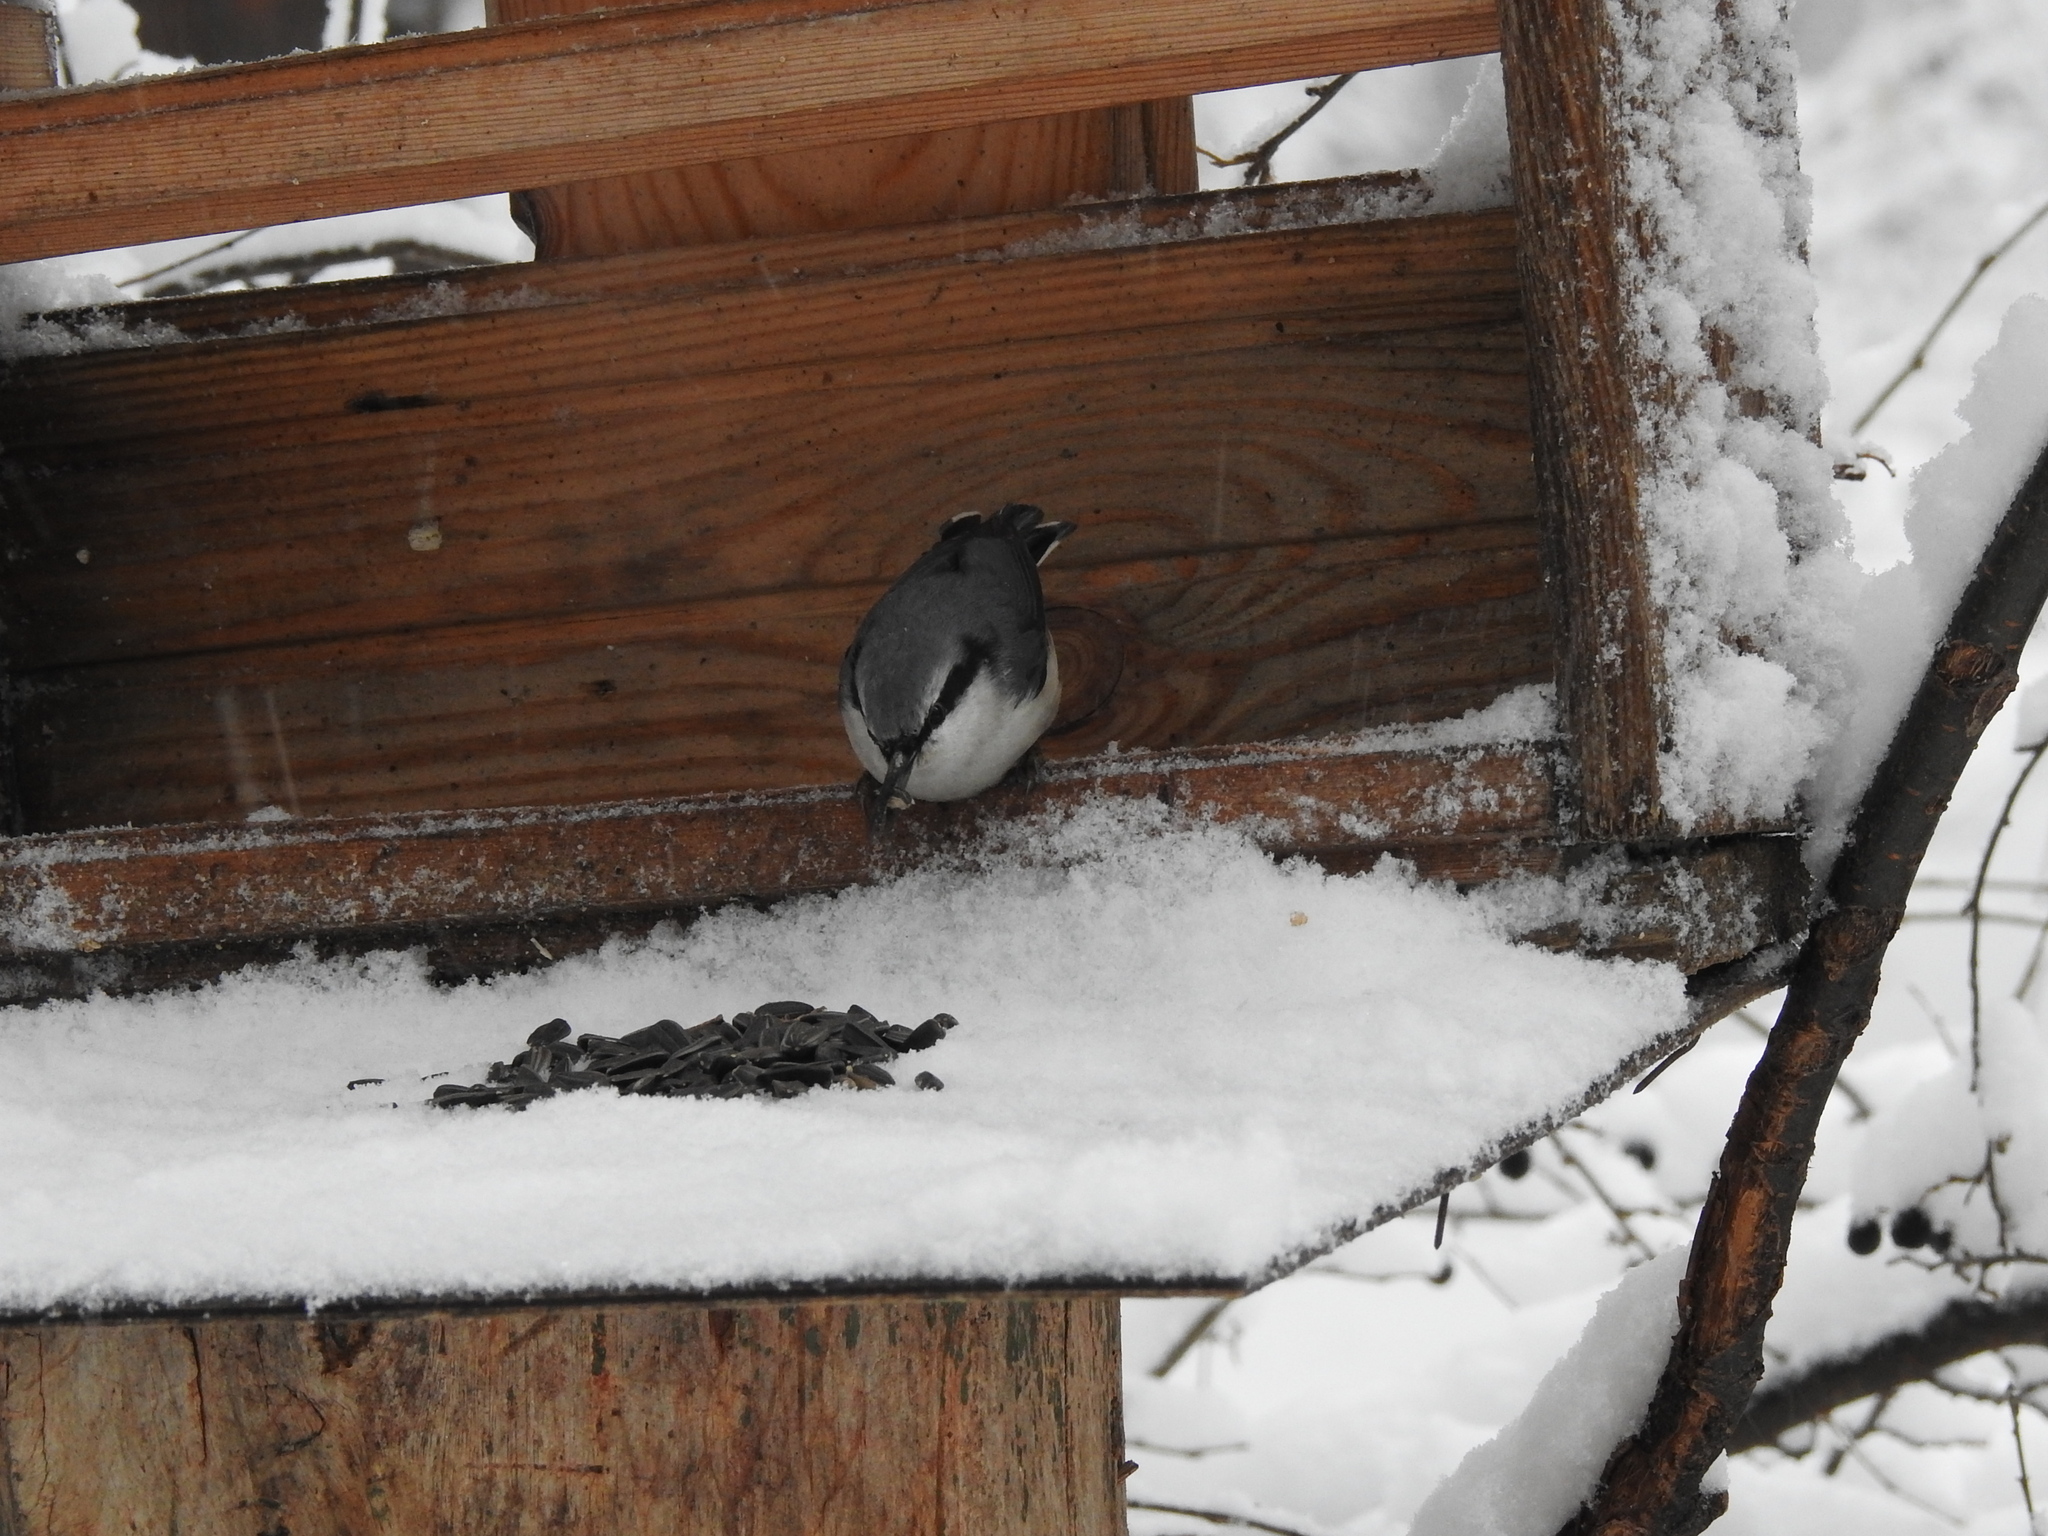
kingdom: Animalia
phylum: Chordata
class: Aves
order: Passeriformes
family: Sittidae
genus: Sitta
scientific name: Sitta europaea
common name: Eurasian nuthatch
